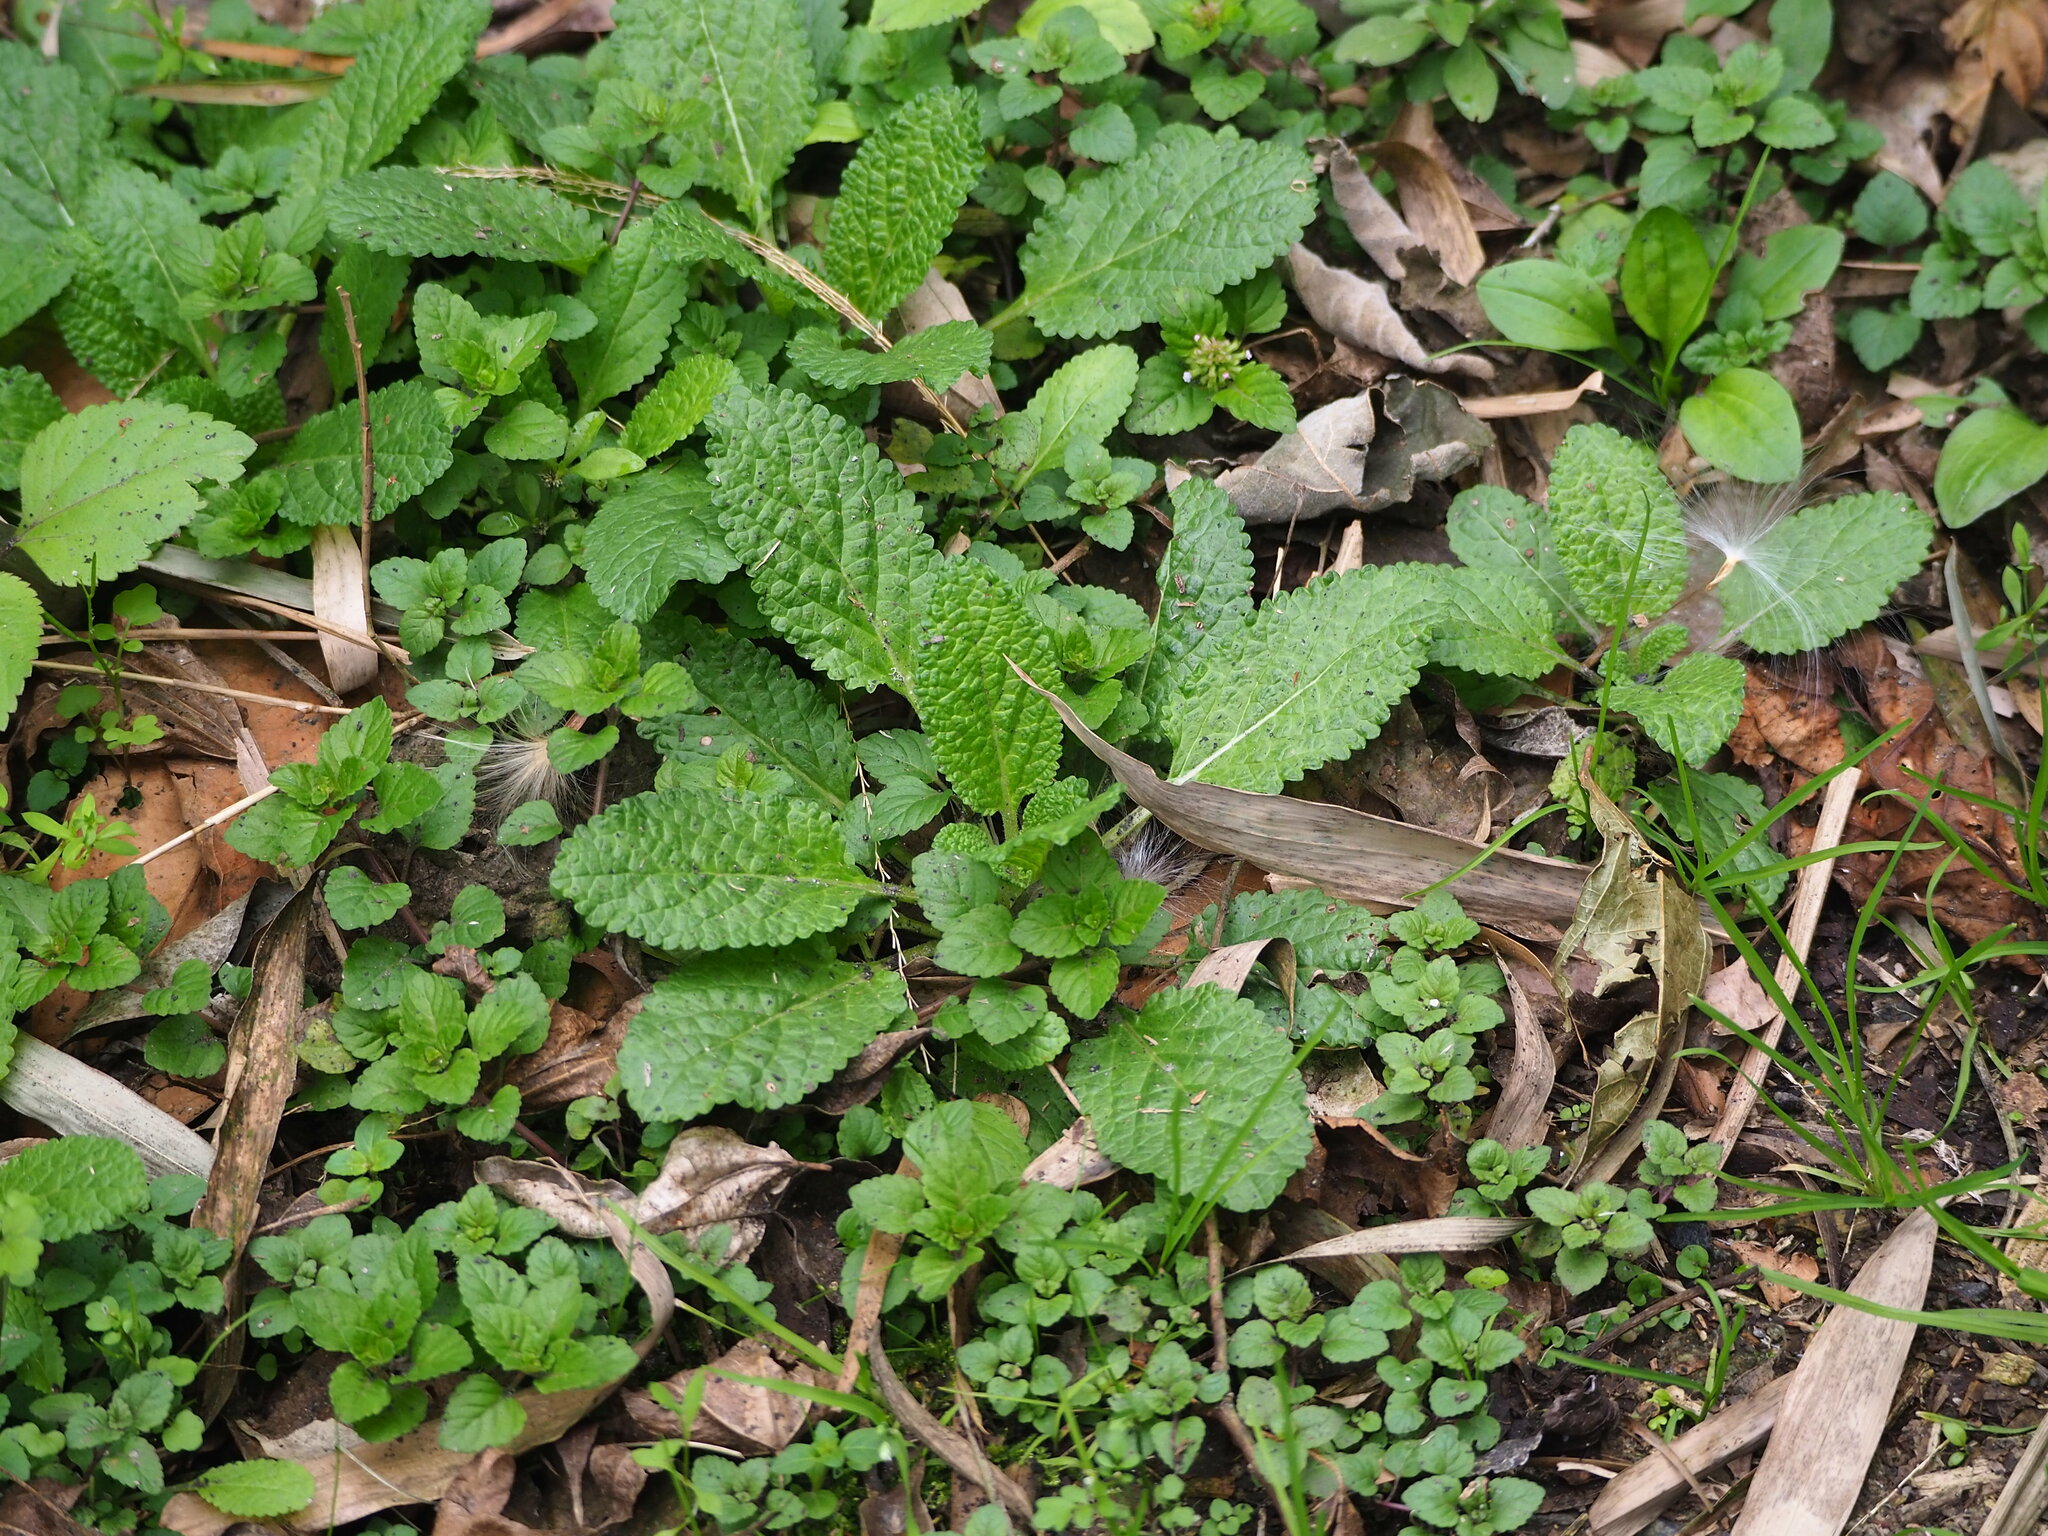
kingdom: Plantae
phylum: Tracheophyta
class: Magnoliopsida
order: Lamiales
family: Lamiaceae
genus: Salvia
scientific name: Salvia plebeia
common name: Australian sage
